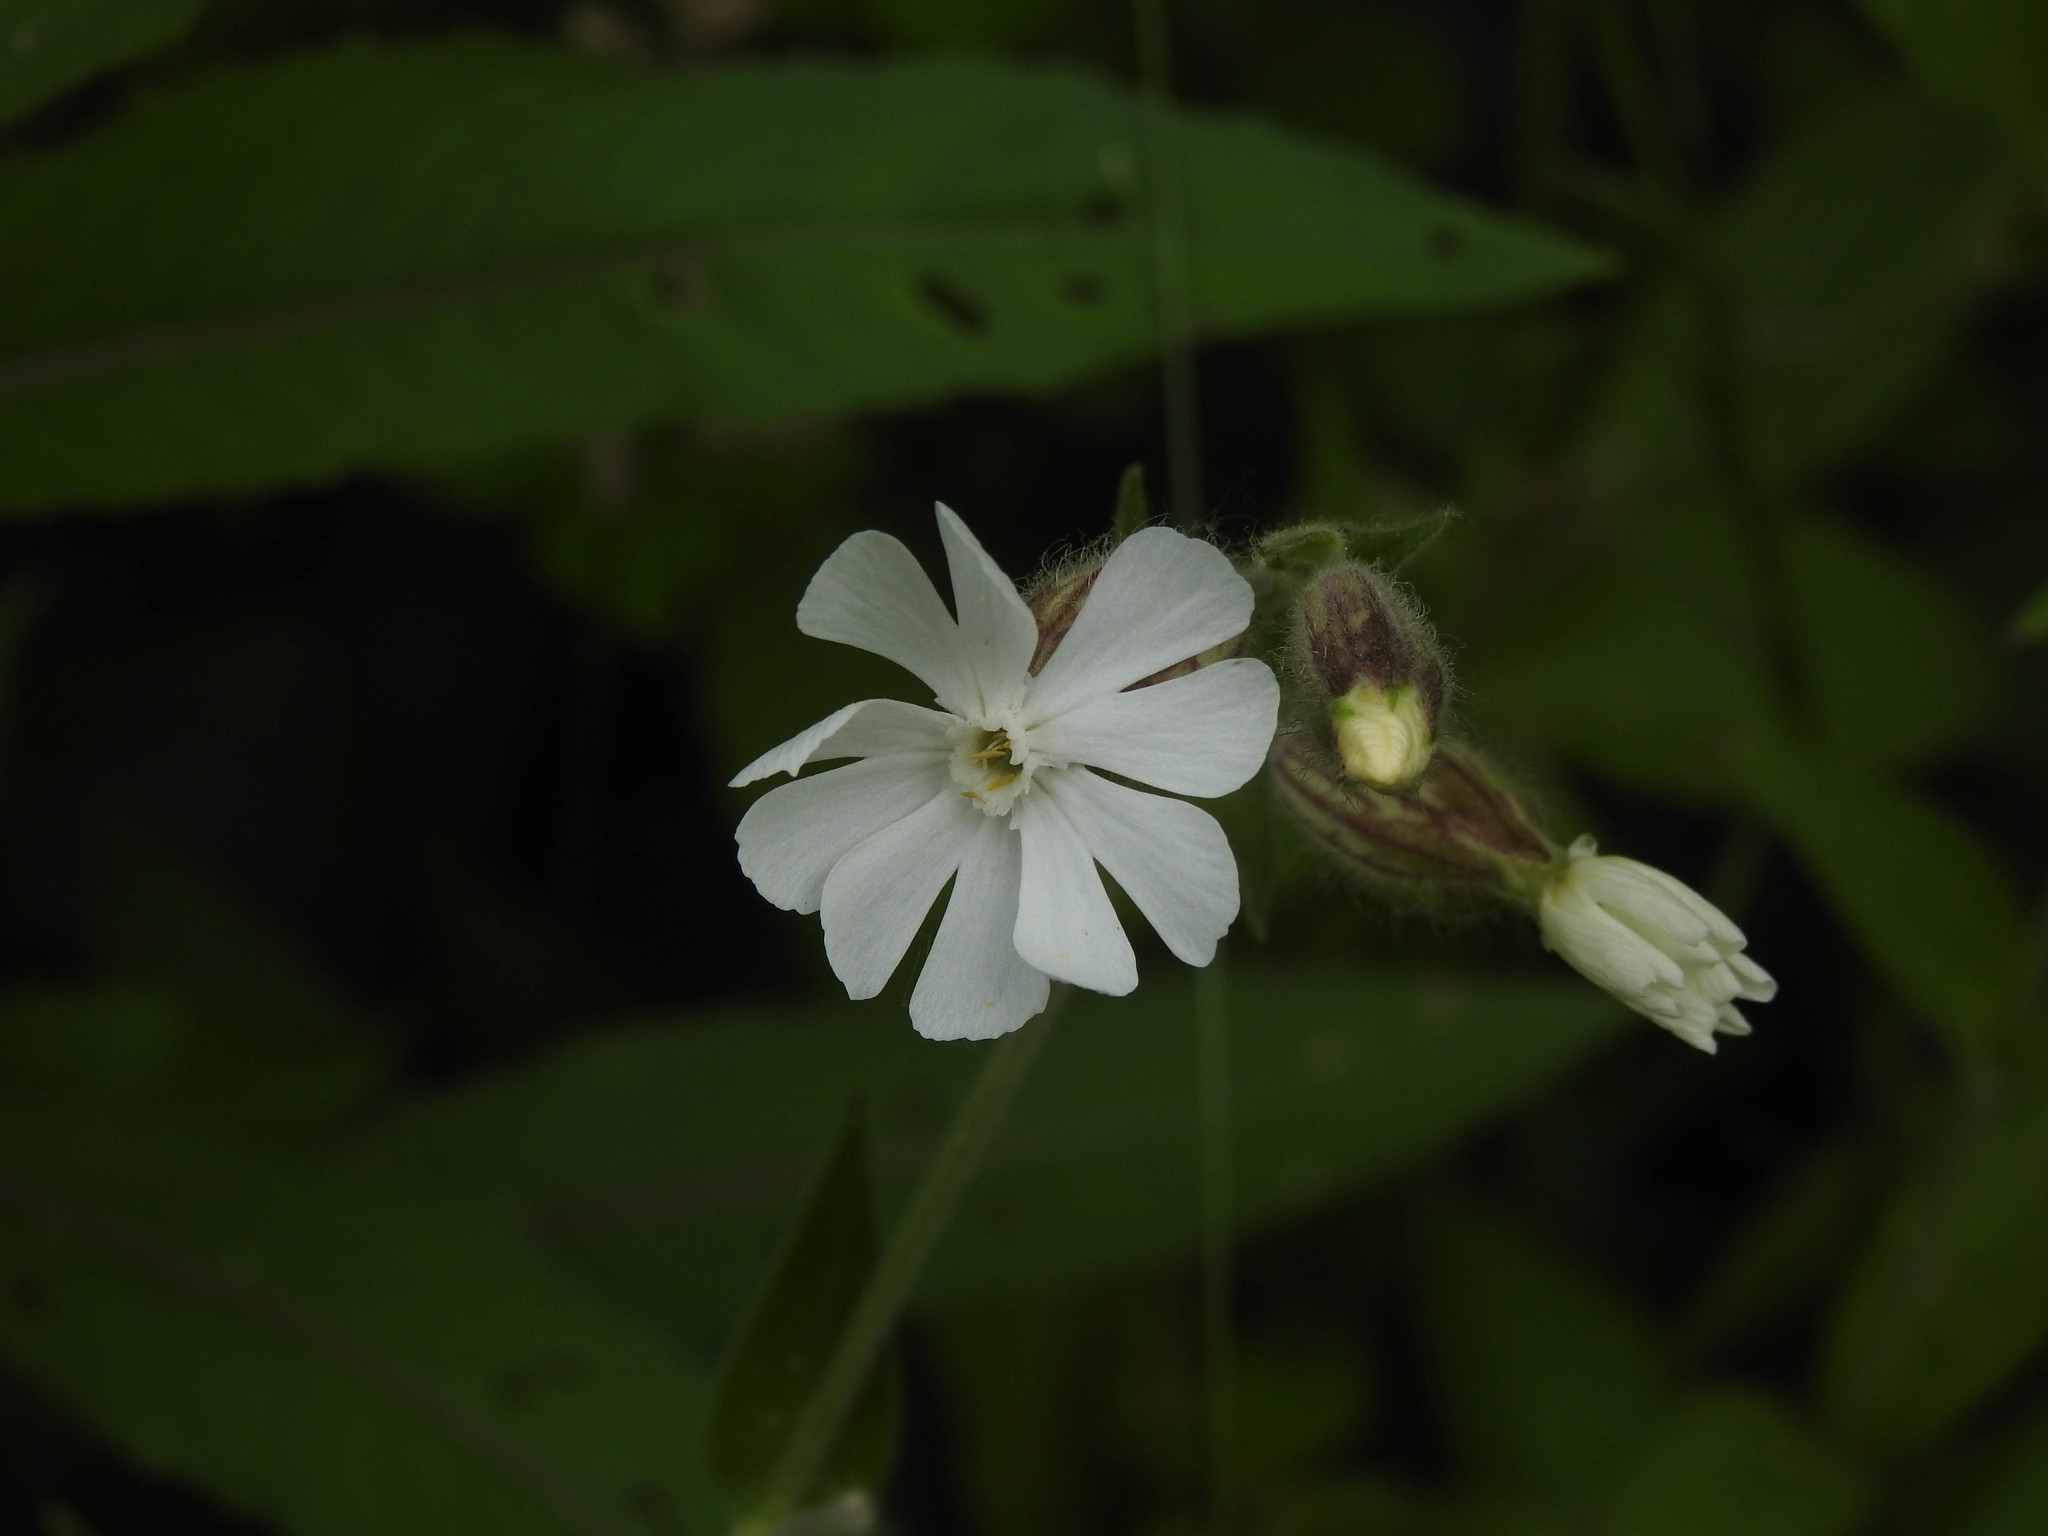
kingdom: Plantae
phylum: Tracheophyta
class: Magnoliopsida
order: Caryophyllales
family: Caryophyllaceae
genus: Silene
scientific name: Silene latifolia
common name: White campion
